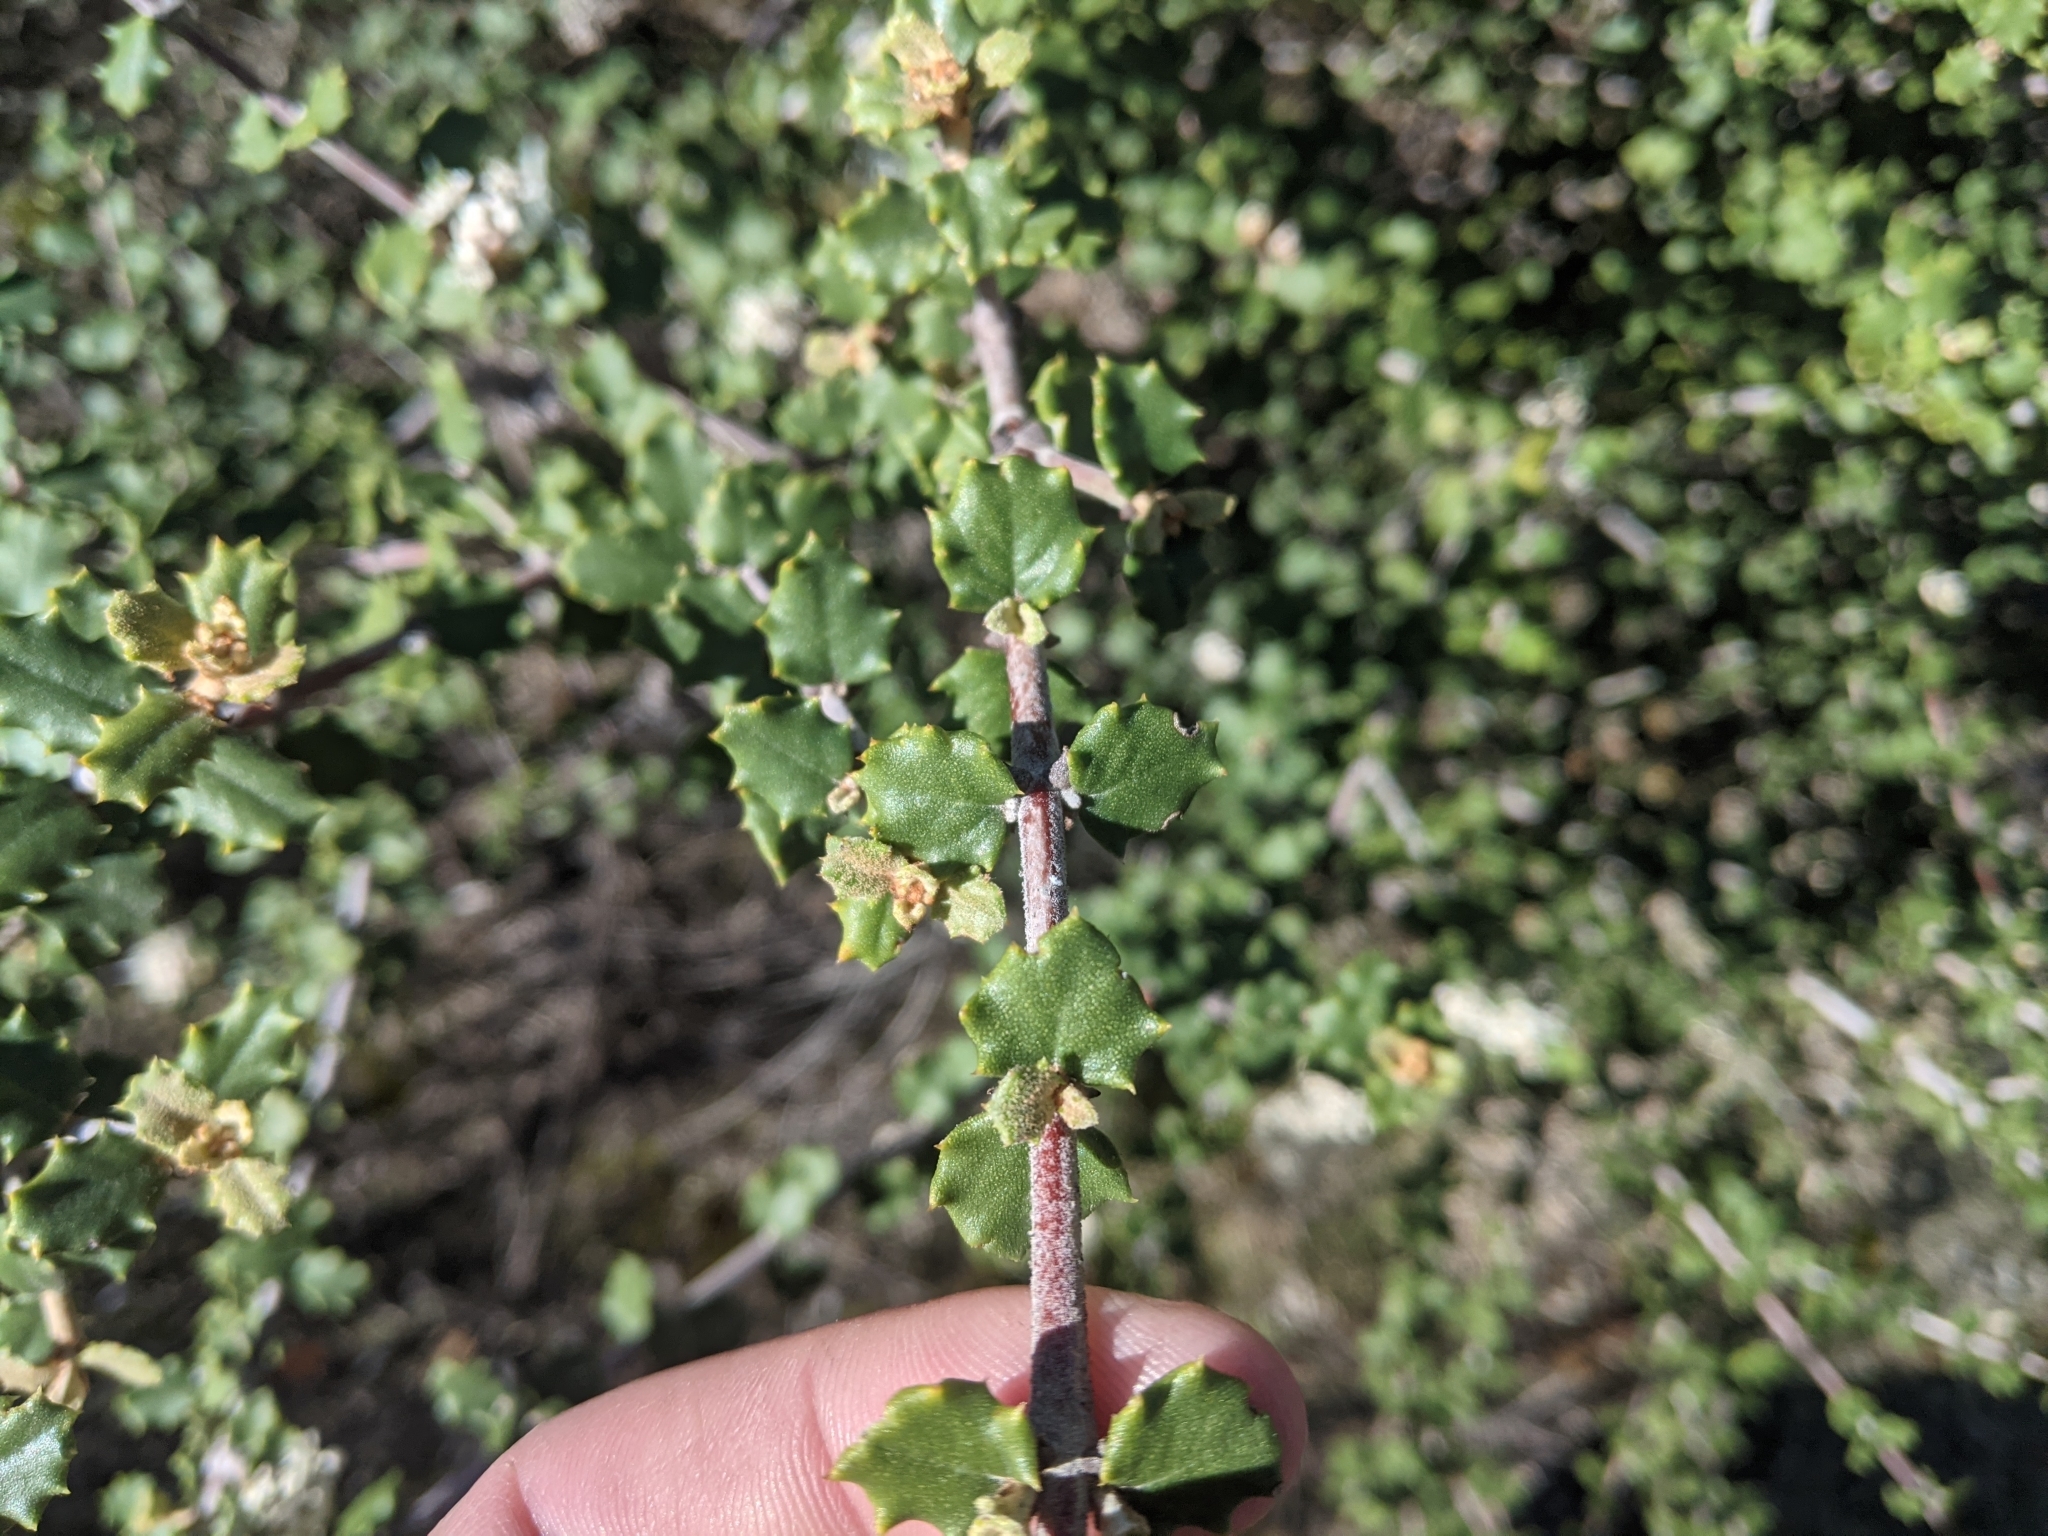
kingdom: Plantae
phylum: Tracheophyta
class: Magnoliopsida
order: Rosales
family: Rhamnaceae
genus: Ceanothus
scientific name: Ceanothus crassifolius
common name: Hoaryleaf ceanothus
